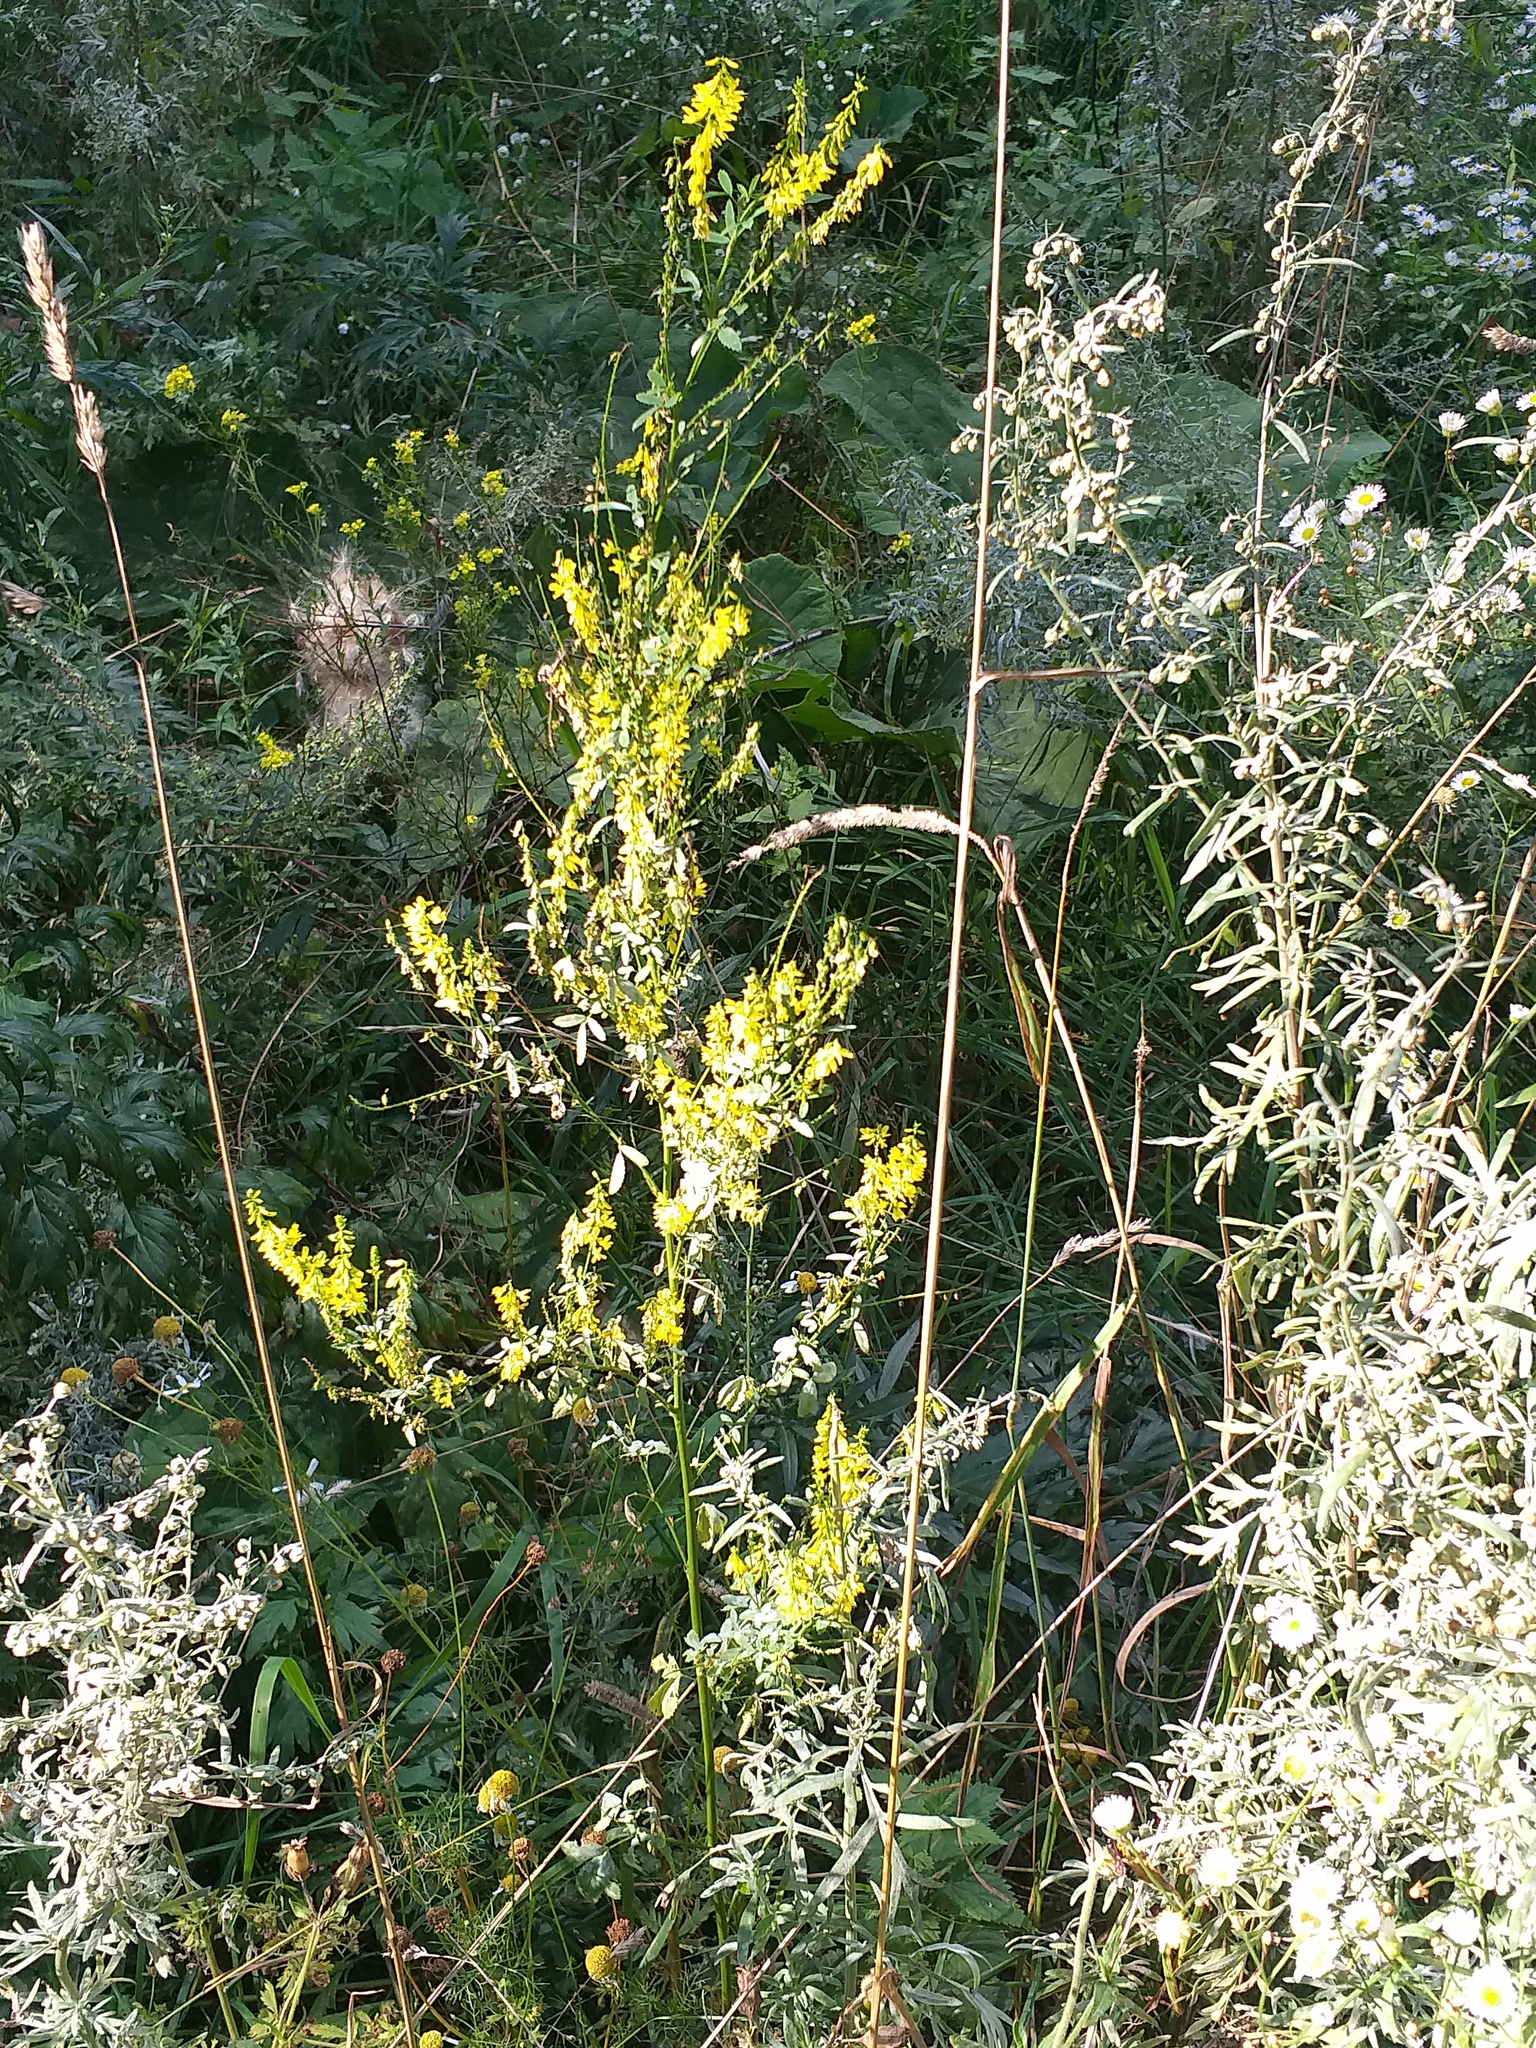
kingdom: Plantae
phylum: Tracheophyta
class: Magnoliopsida
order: Fabales
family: Fabaceae
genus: Melilotus
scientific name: Melilotus officinalis
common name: Sweetclover
